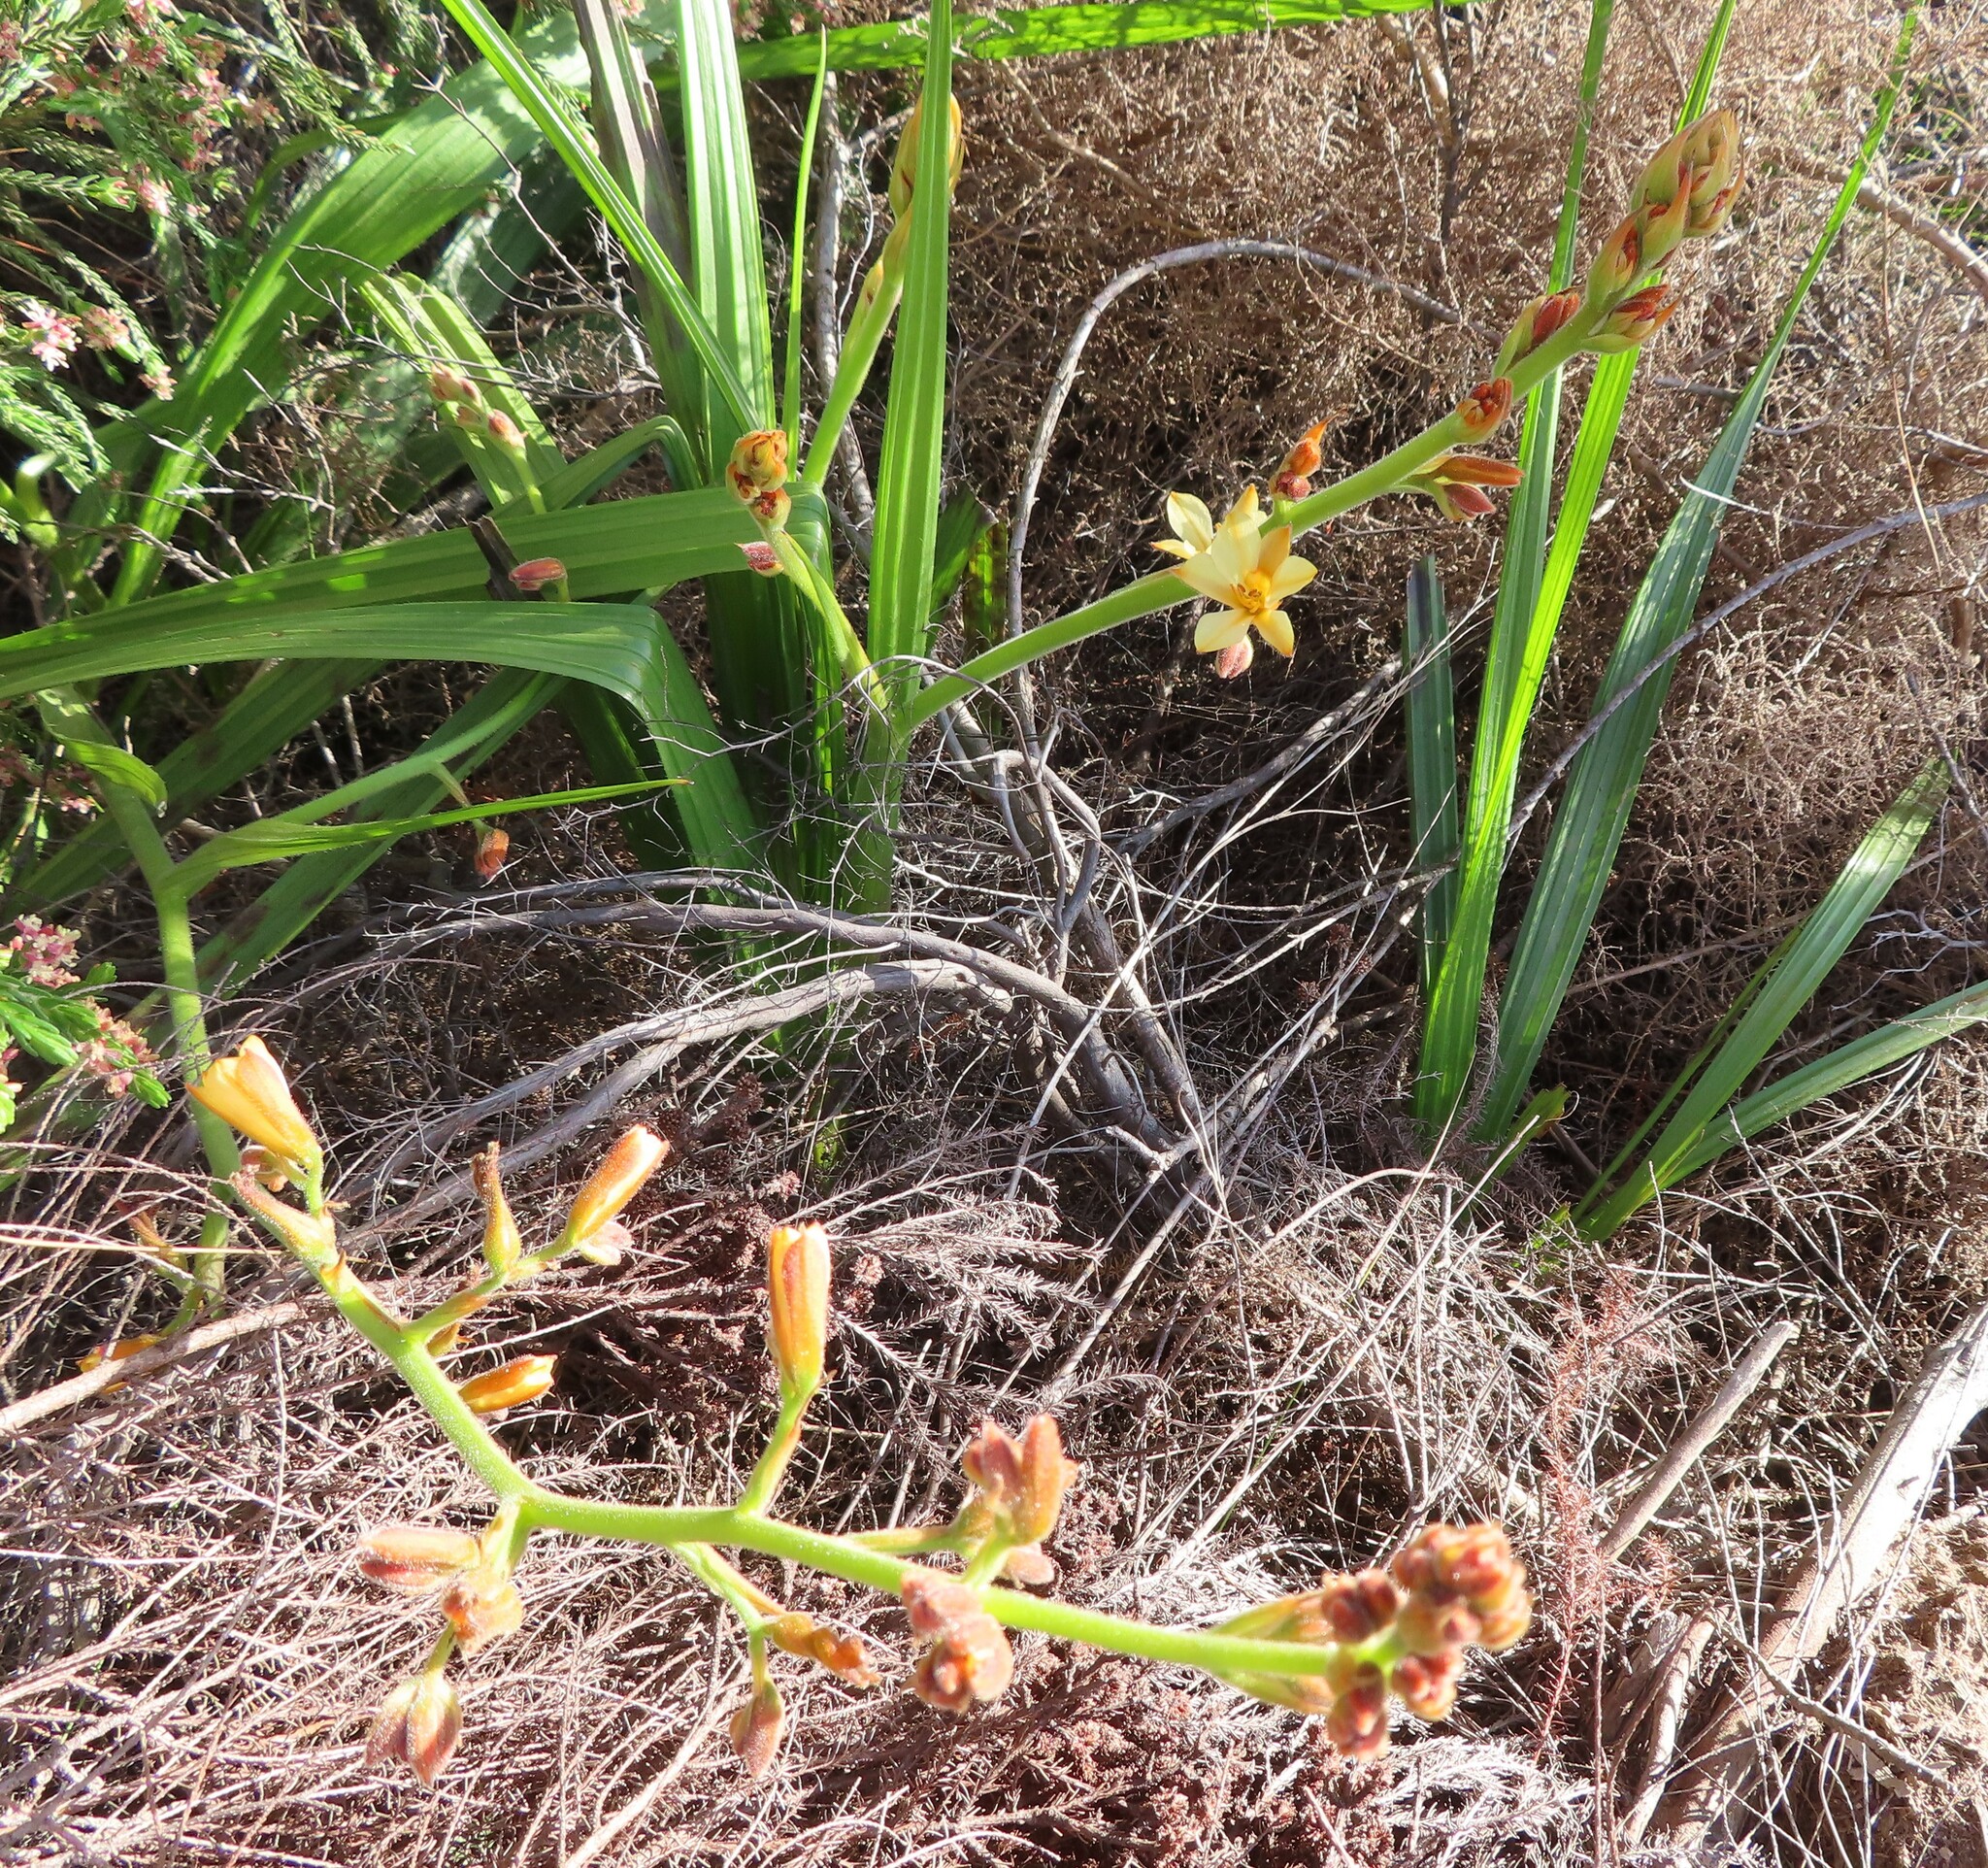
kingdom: Plantae
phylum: Tracheophyta
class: Liliopsida
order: Commelinales
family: Haemodoraceae
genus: Wachendorfia
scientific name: Wachendorfia paniculata
